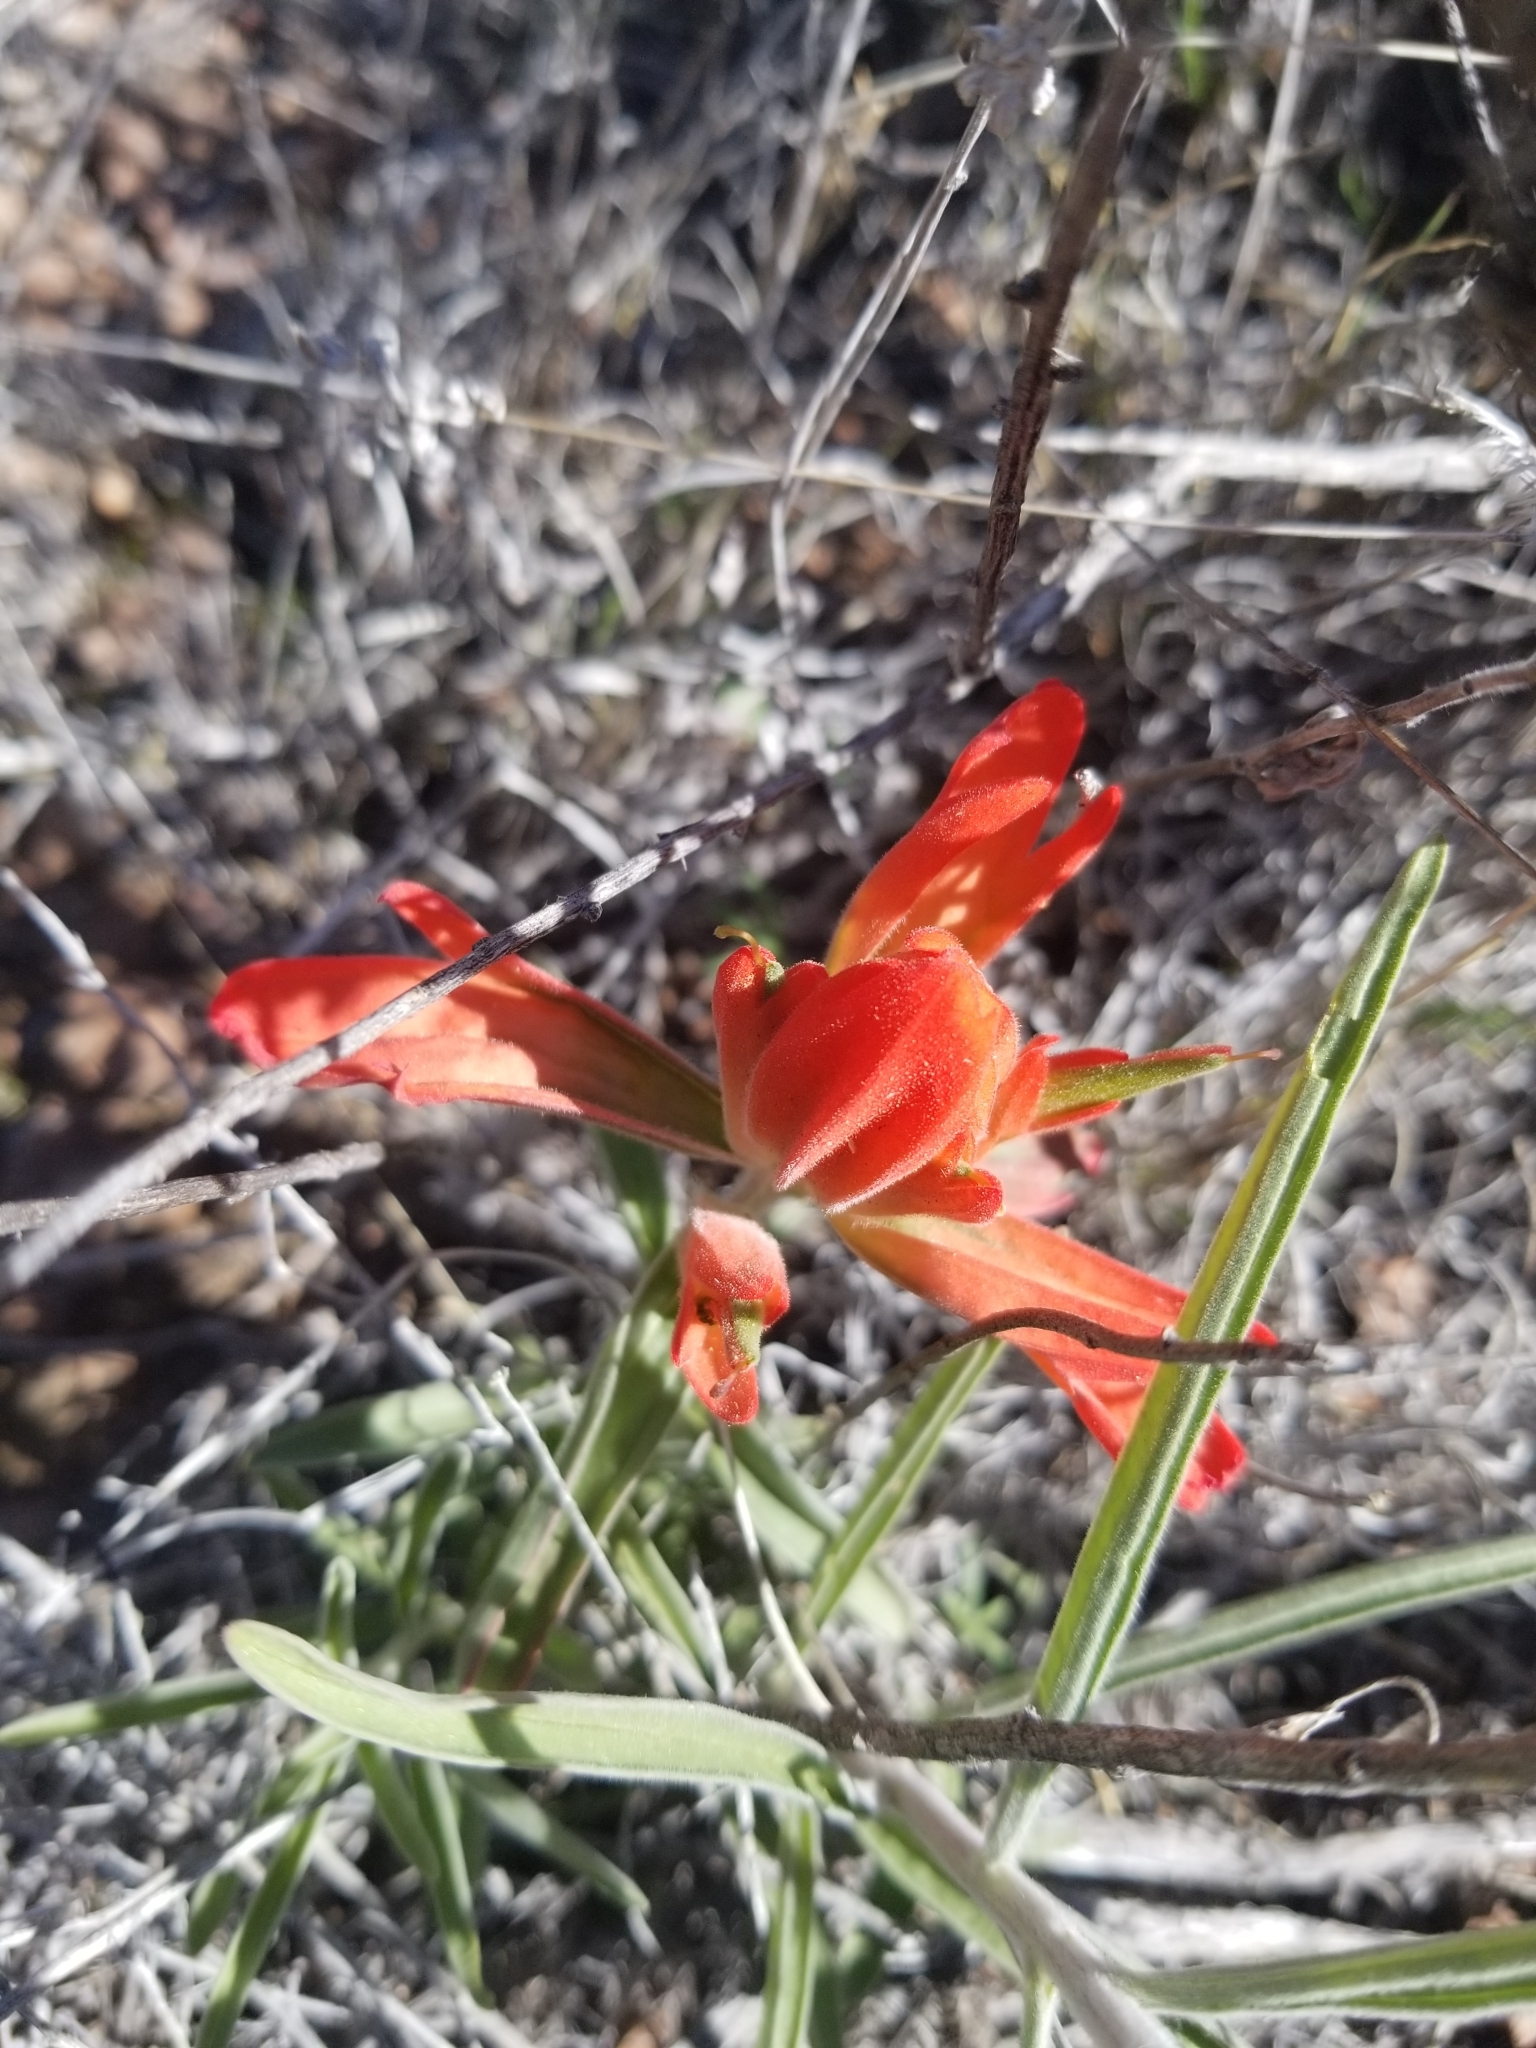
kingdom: Plantae
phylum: Tracheophyta
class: Magnoliopsida
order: Lamiales
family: Orobanchaceae
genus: Castilleja
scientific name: Castilleja integra
